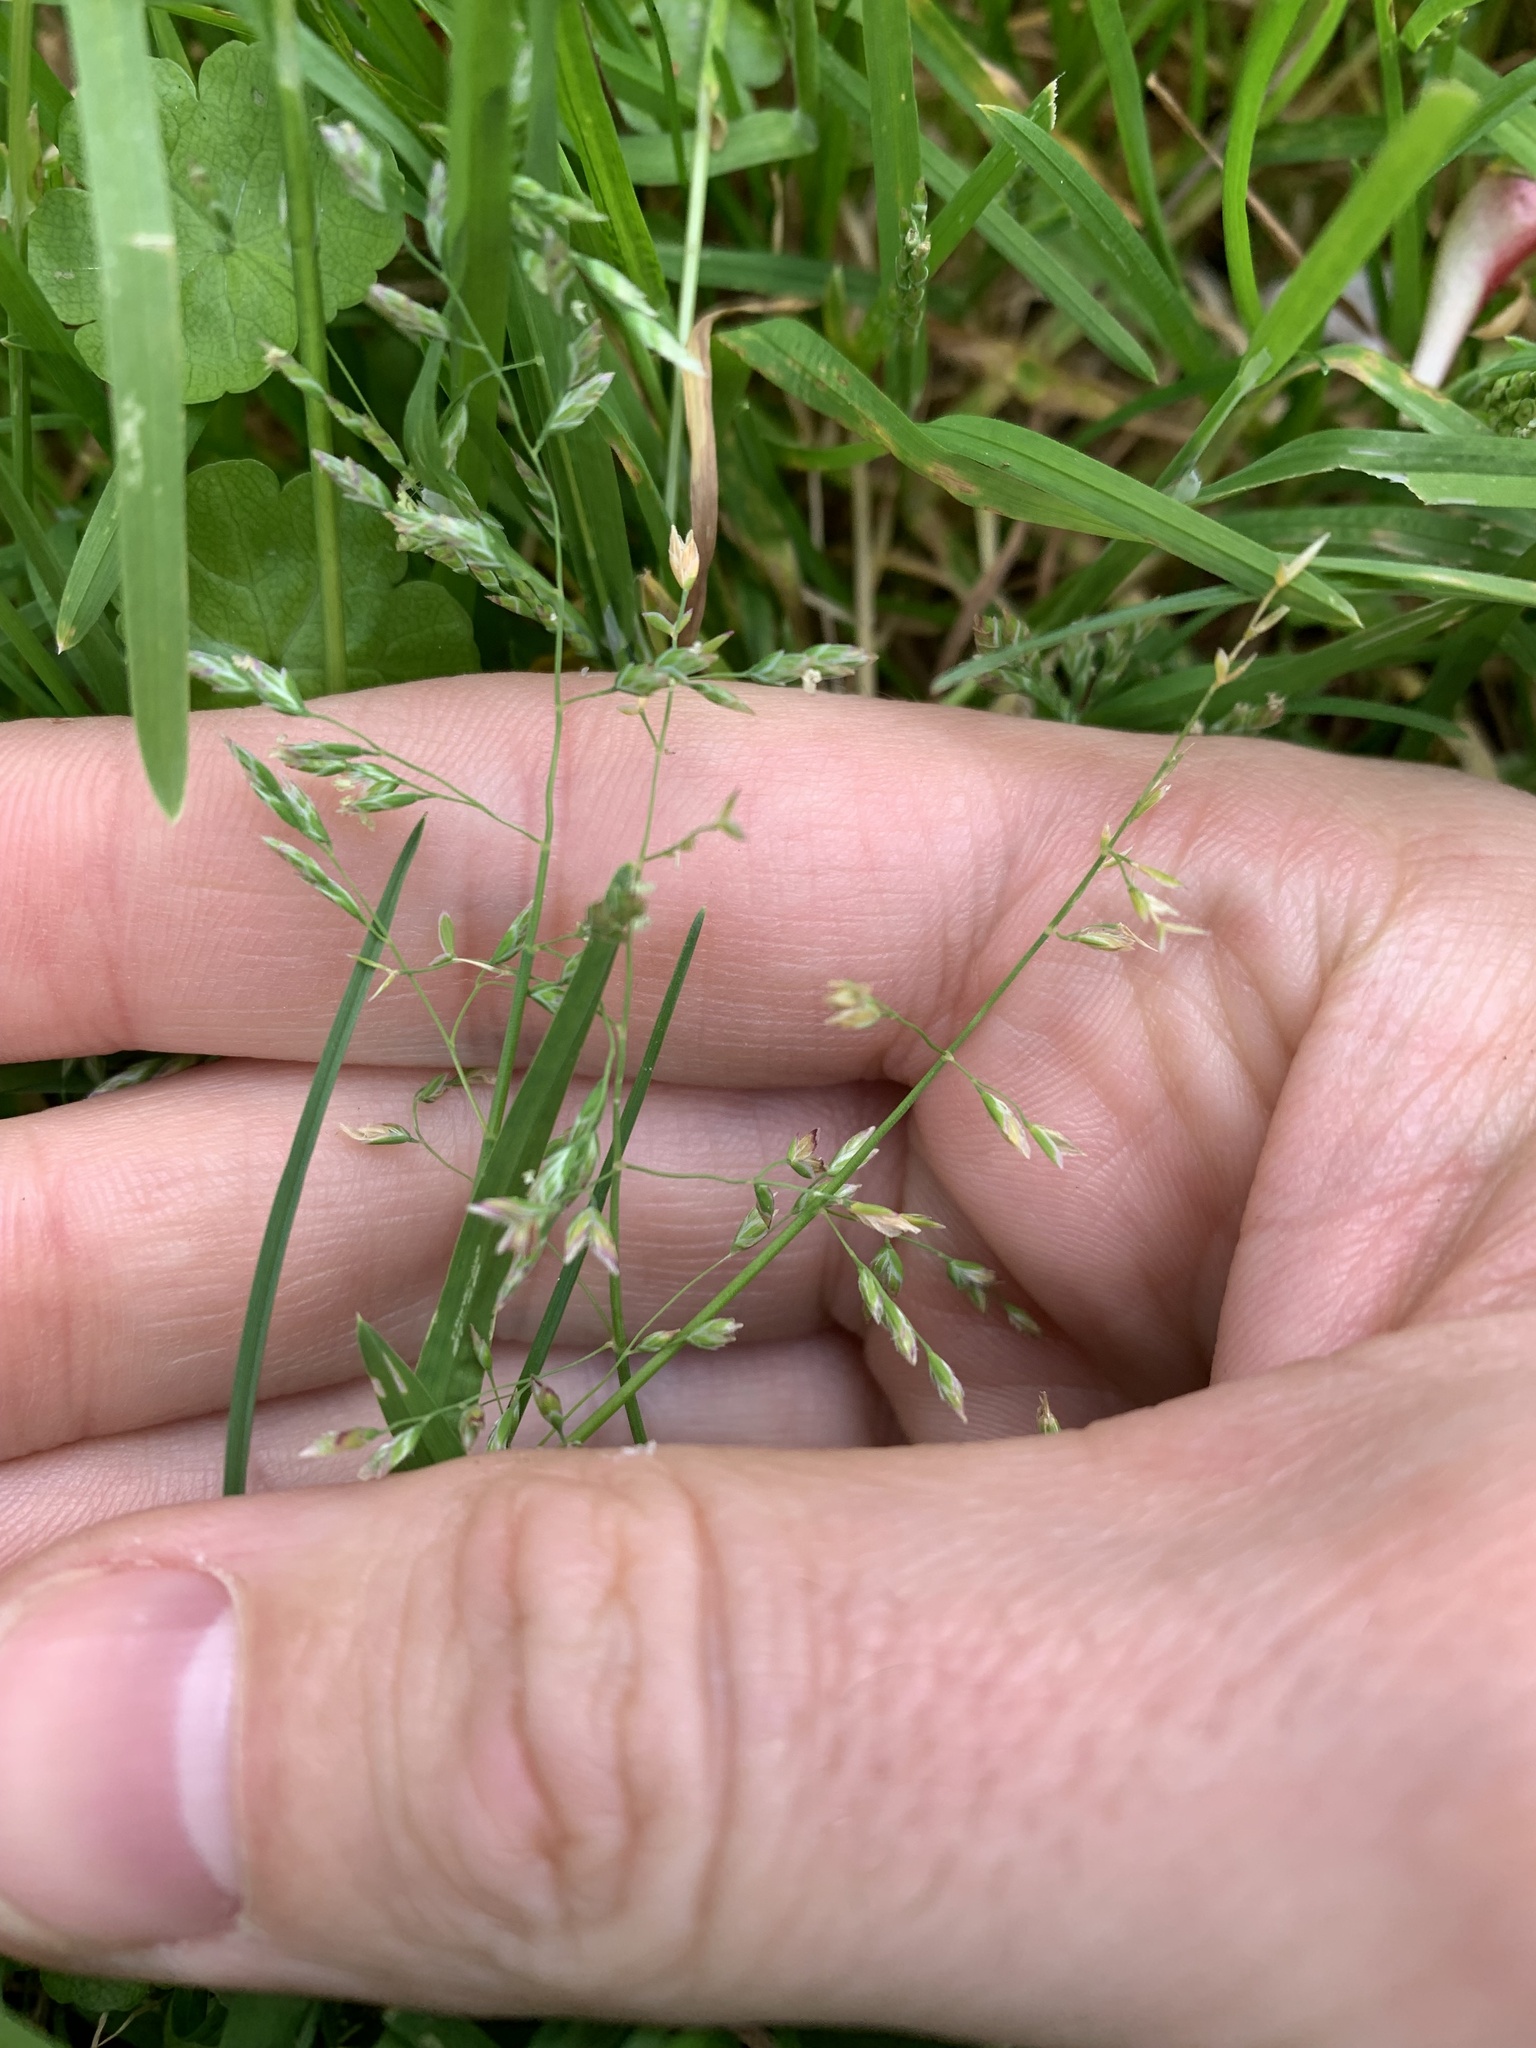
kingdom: Plantae
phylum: Tracheophyta
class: Liliopsida
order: Poales
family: Poaceae
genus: Poa
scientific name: Poa annua
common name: Annual bluegrass
